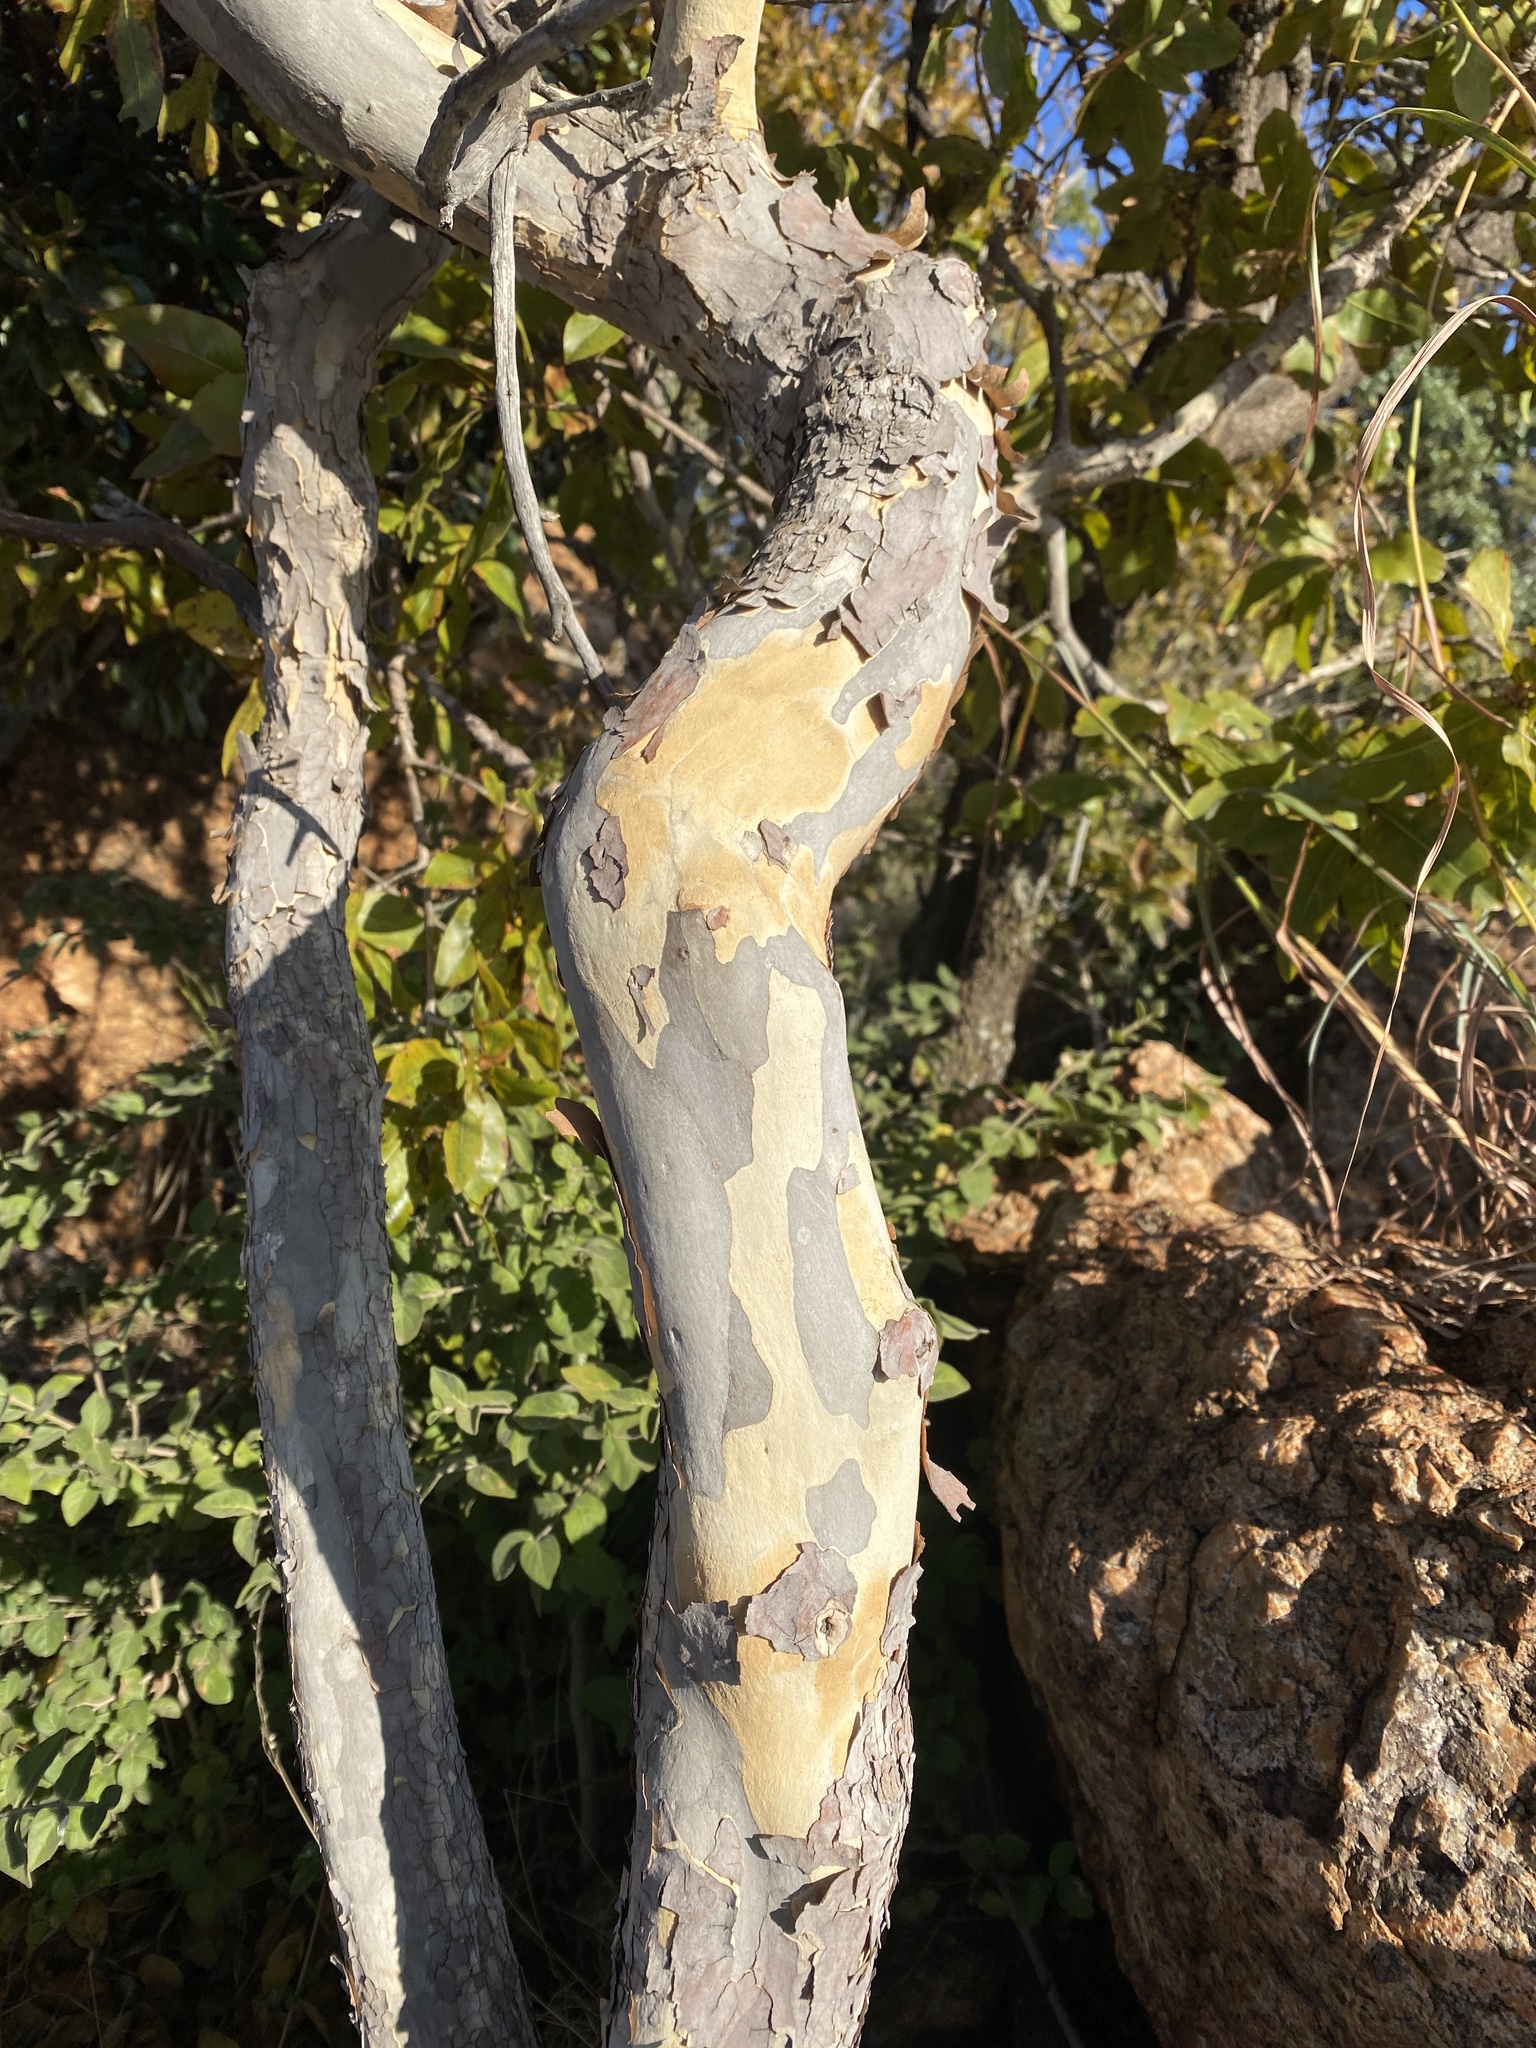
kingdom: Plantae
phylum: Tracheophyta
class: Magnoliopsida
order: Malpighiales
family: Ochnaceae
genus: Ochna
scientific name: Ochna pulchra
